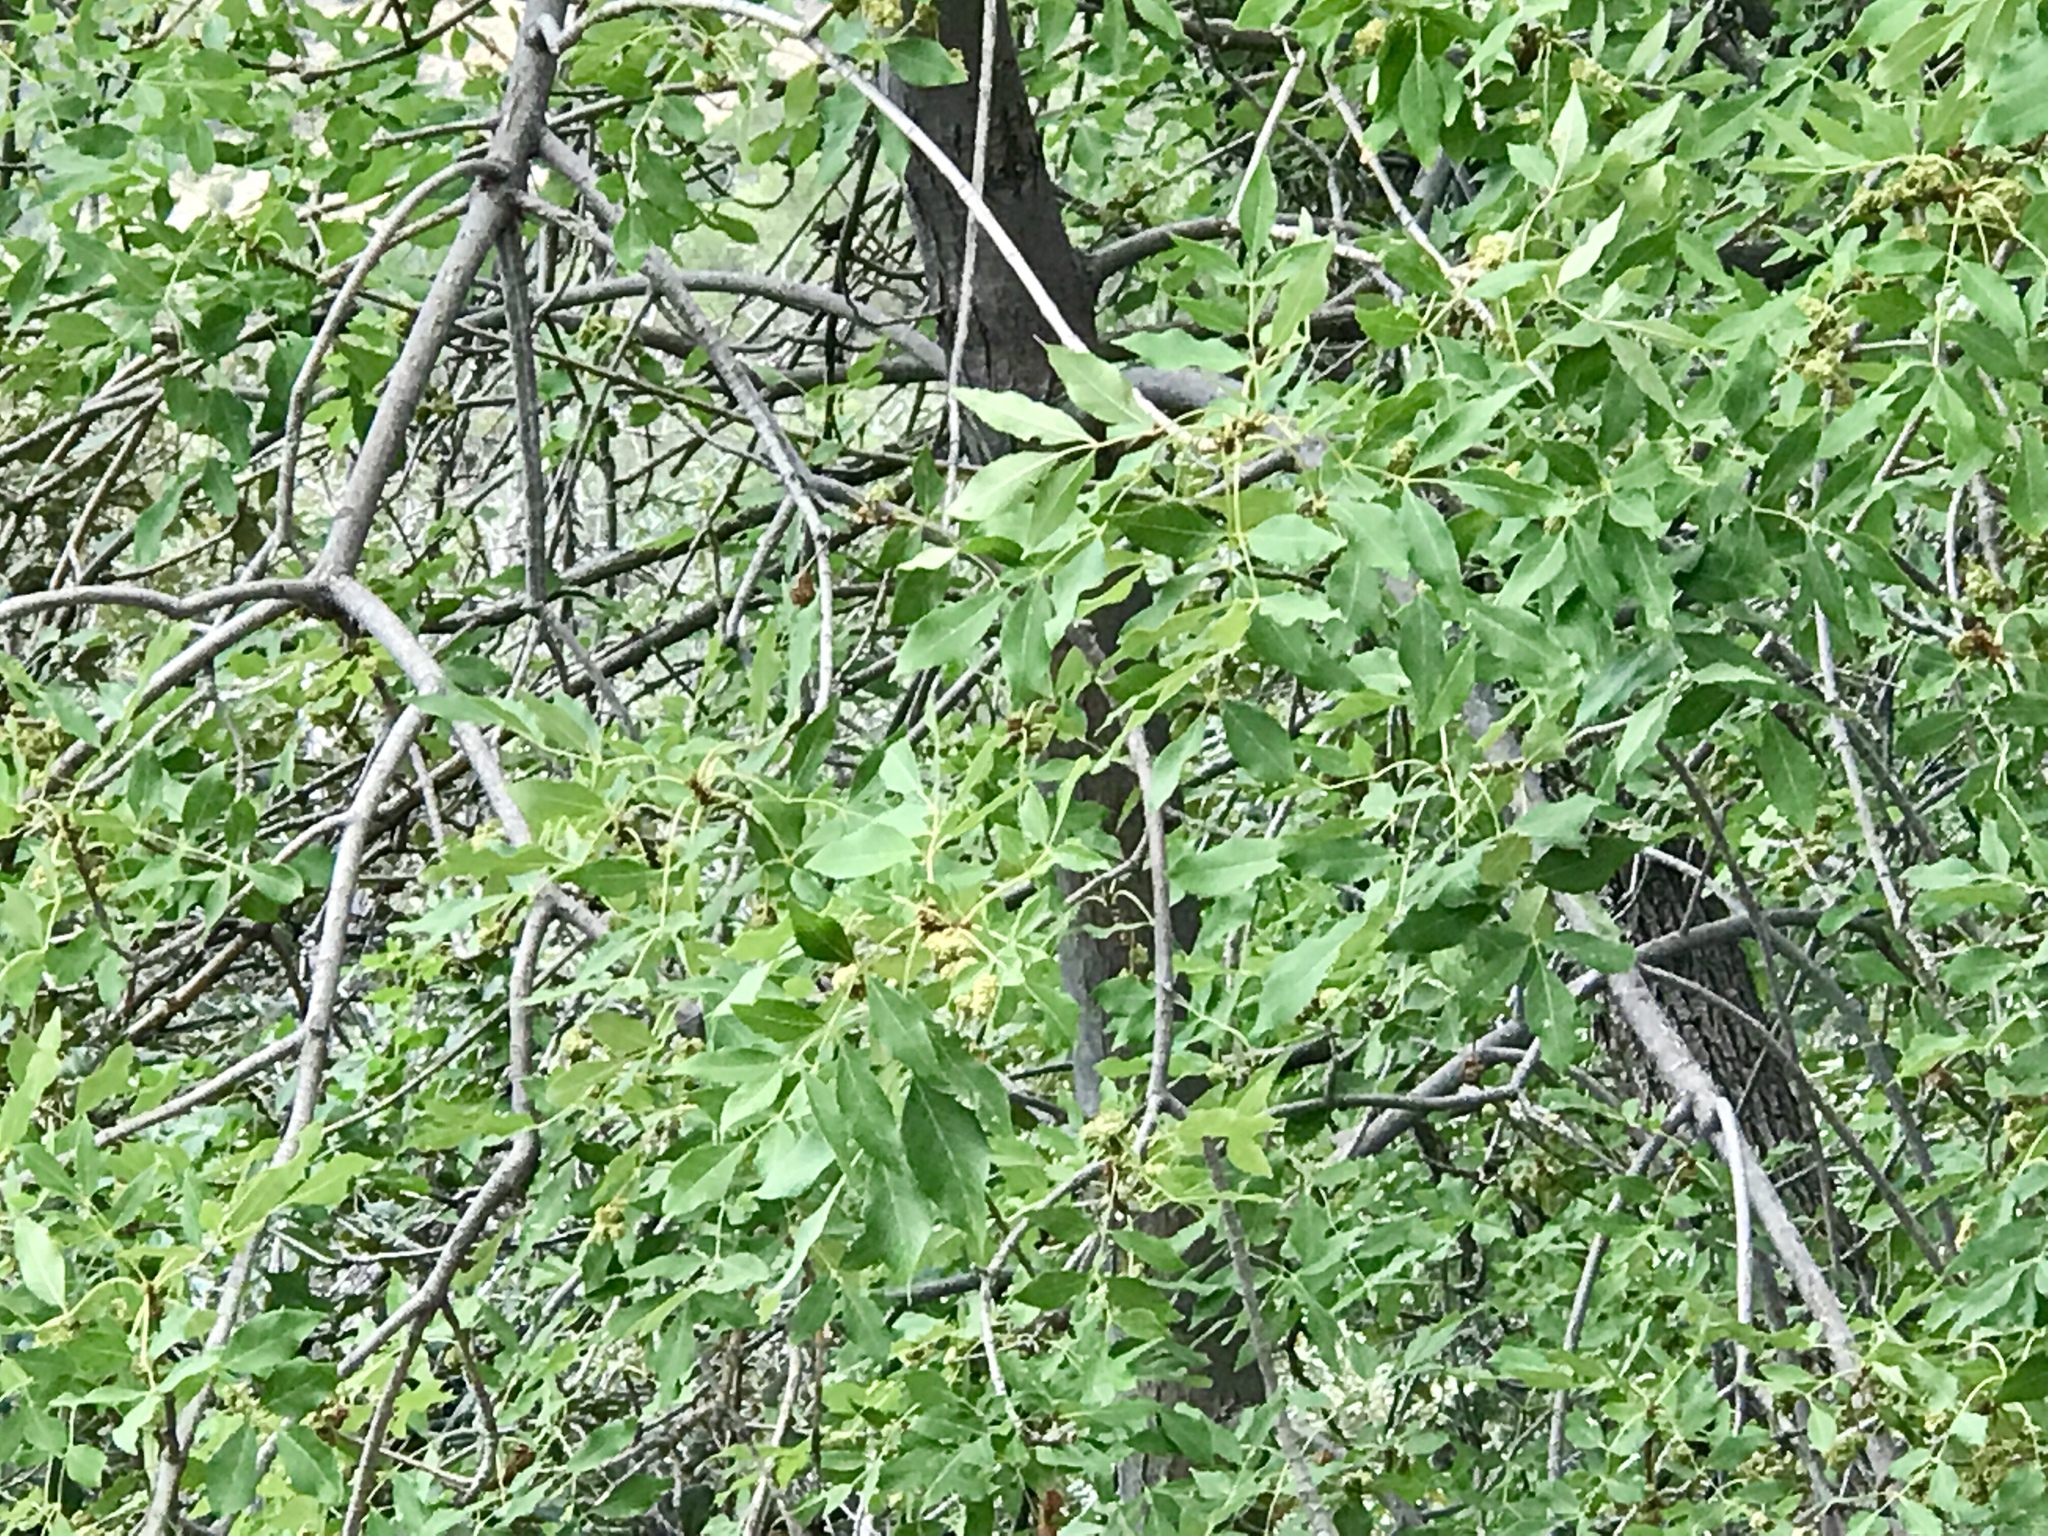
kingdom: Plantae
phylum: Tracheophyta
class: Magnoliopsida
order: Lamiales
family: Oleaceae
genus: Fraxinus
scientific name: Fraxinus velutina
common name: Arizon ash
